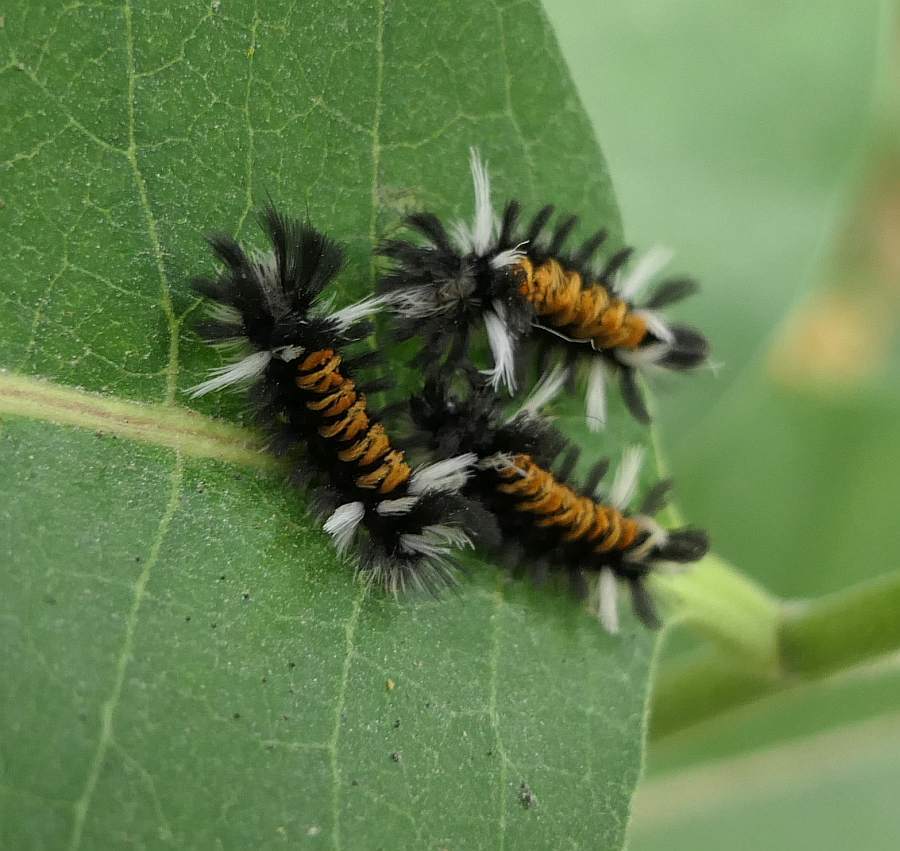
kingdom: Animalia
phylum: Arthropoda
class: Insecta
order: Lepidoptera
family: Erebidae
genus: Euchaetes
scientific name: Euchaetes egle
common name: Milkweed tussock moth
